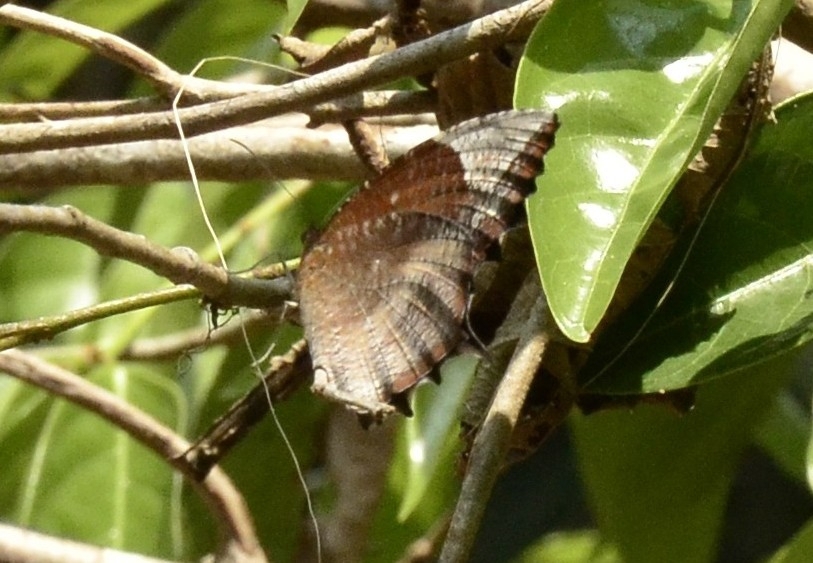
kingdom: Animalia
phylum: Arthropoda
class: Insecta
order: Lepidoptera
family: Nymphalidae
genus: Elymnias
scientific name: Elymnias caudata
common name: Tailed palmfly
